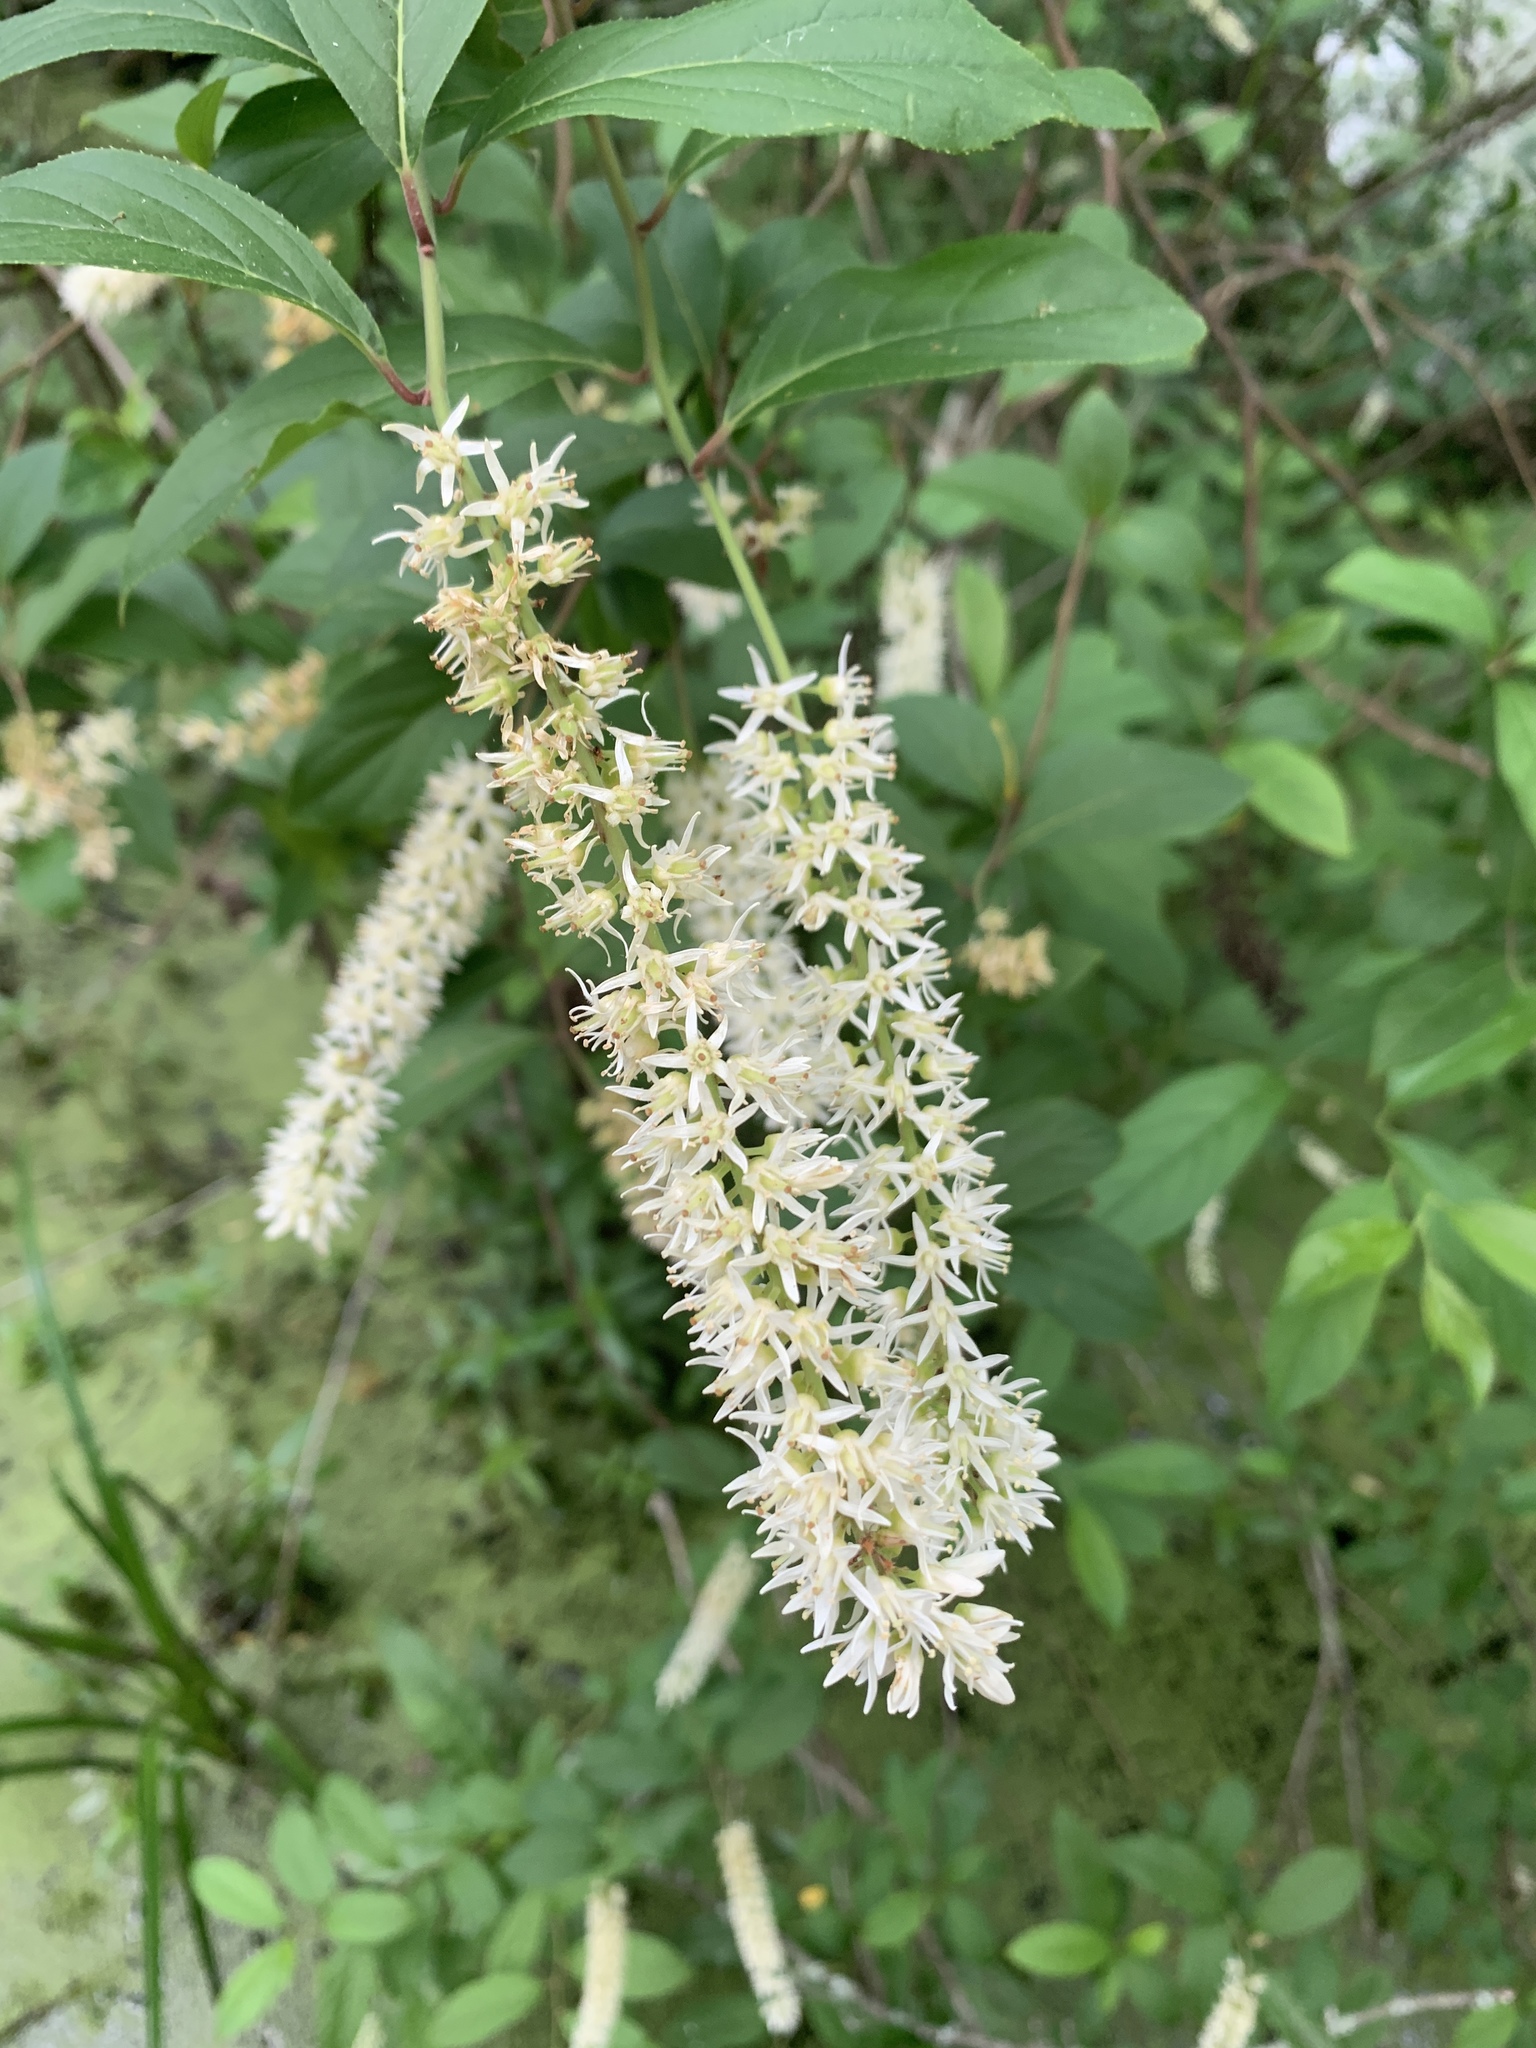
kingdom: Plantae
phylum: Tracheophyta
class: Magnoliopsida
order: Saxifragales
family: Iteaceae
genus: Itea
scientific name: Itea virginica
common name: Sweetspire
